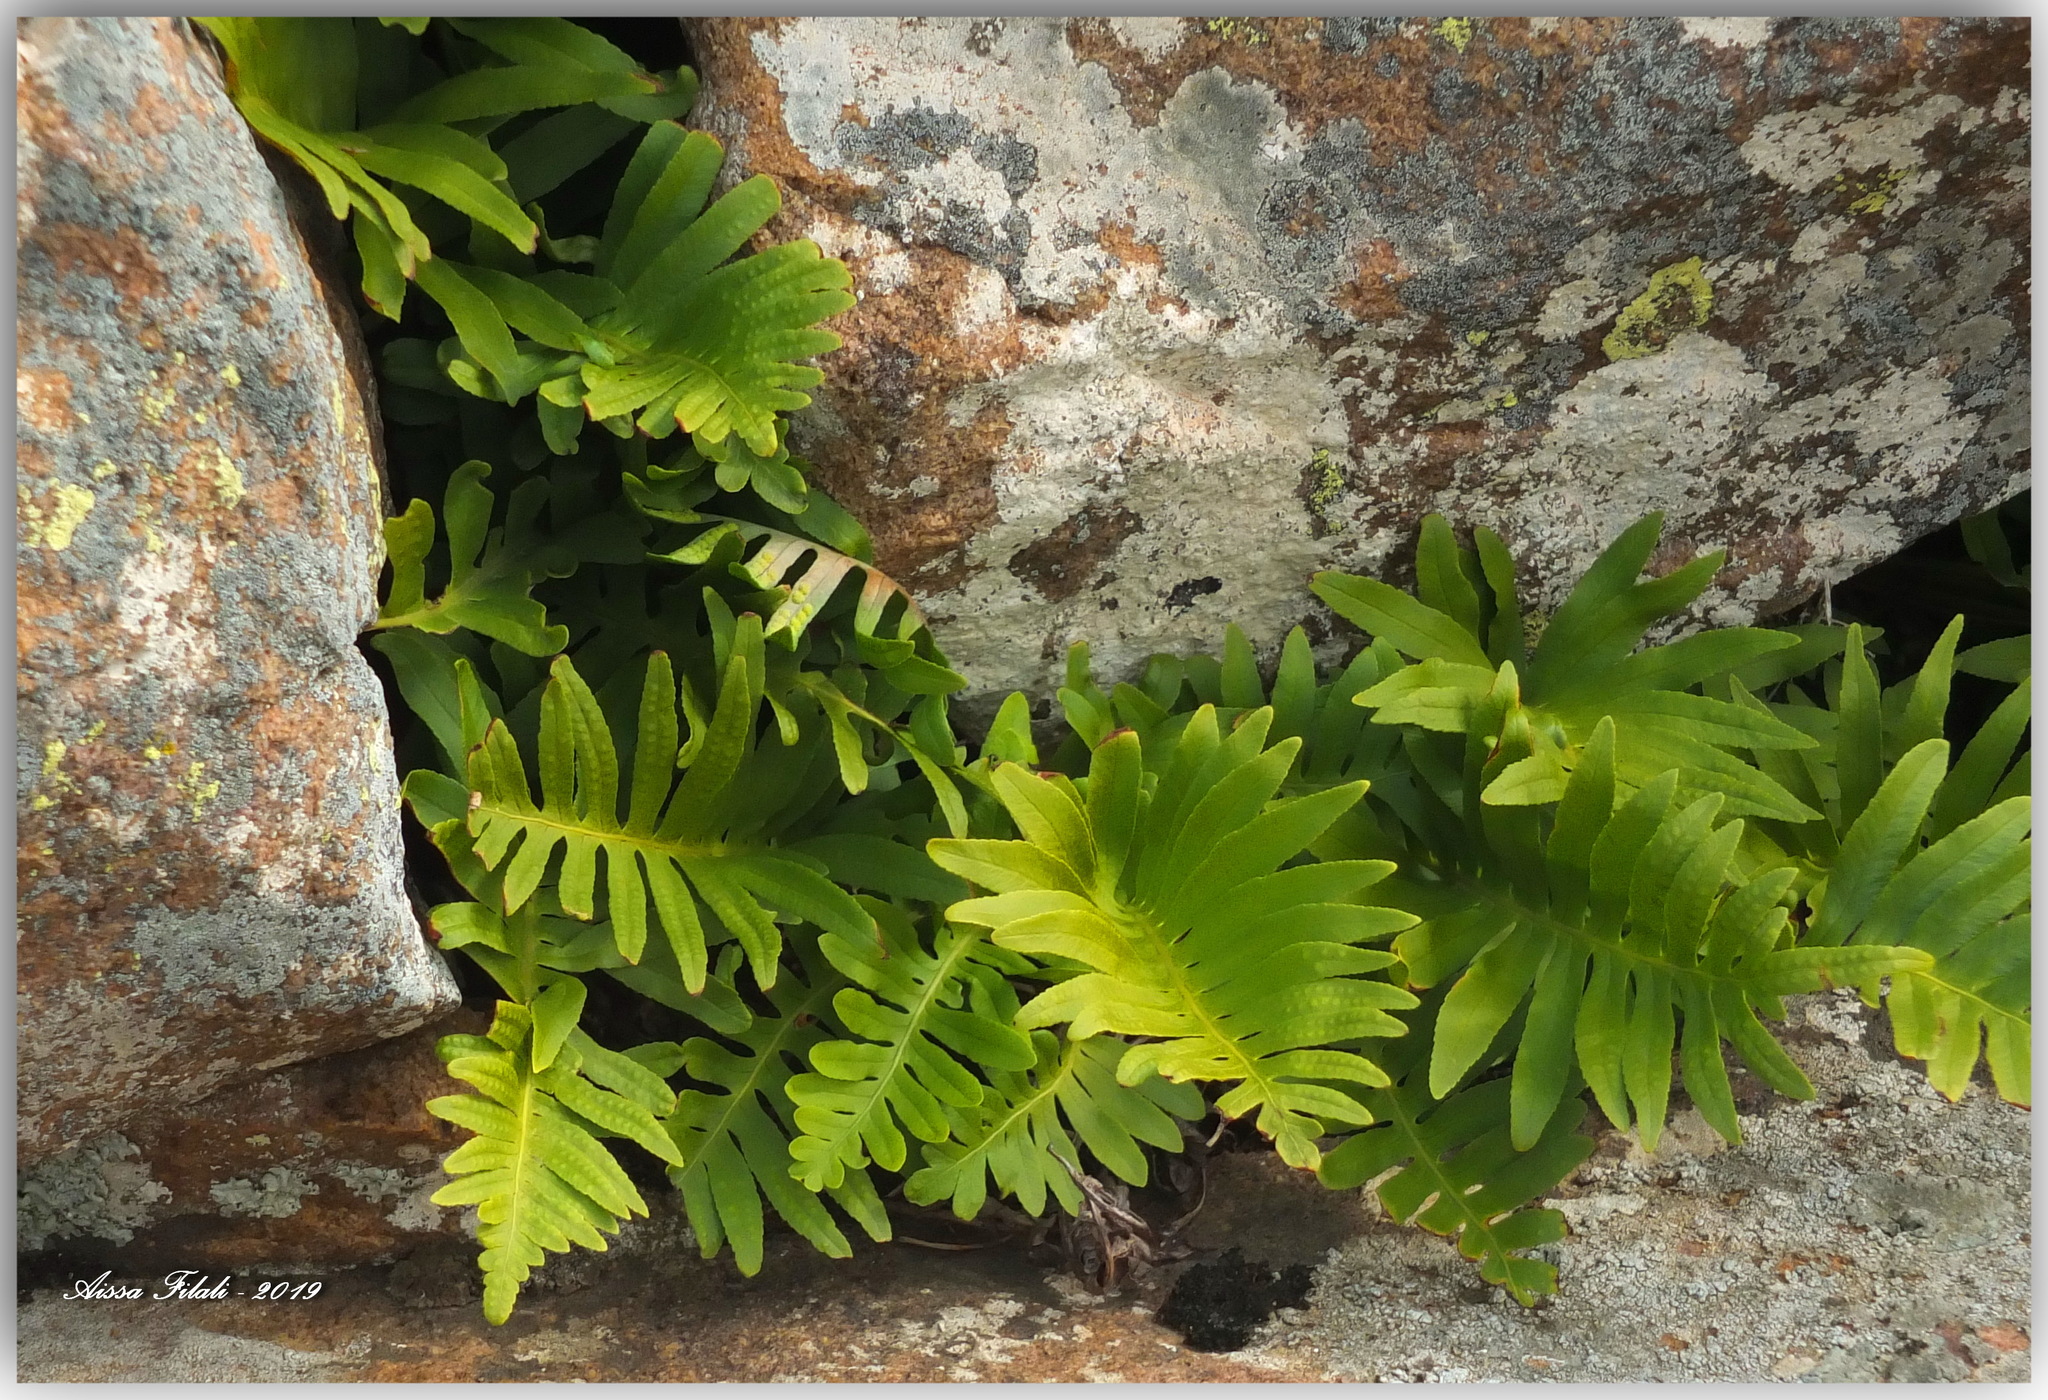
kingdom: Plantae
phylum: Tracheophyta
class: Polypodiopsida
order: Polypodiales
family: Polypodiaceae
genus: Polypodium
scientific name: Polypodium cambricum
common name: Southern polypody
